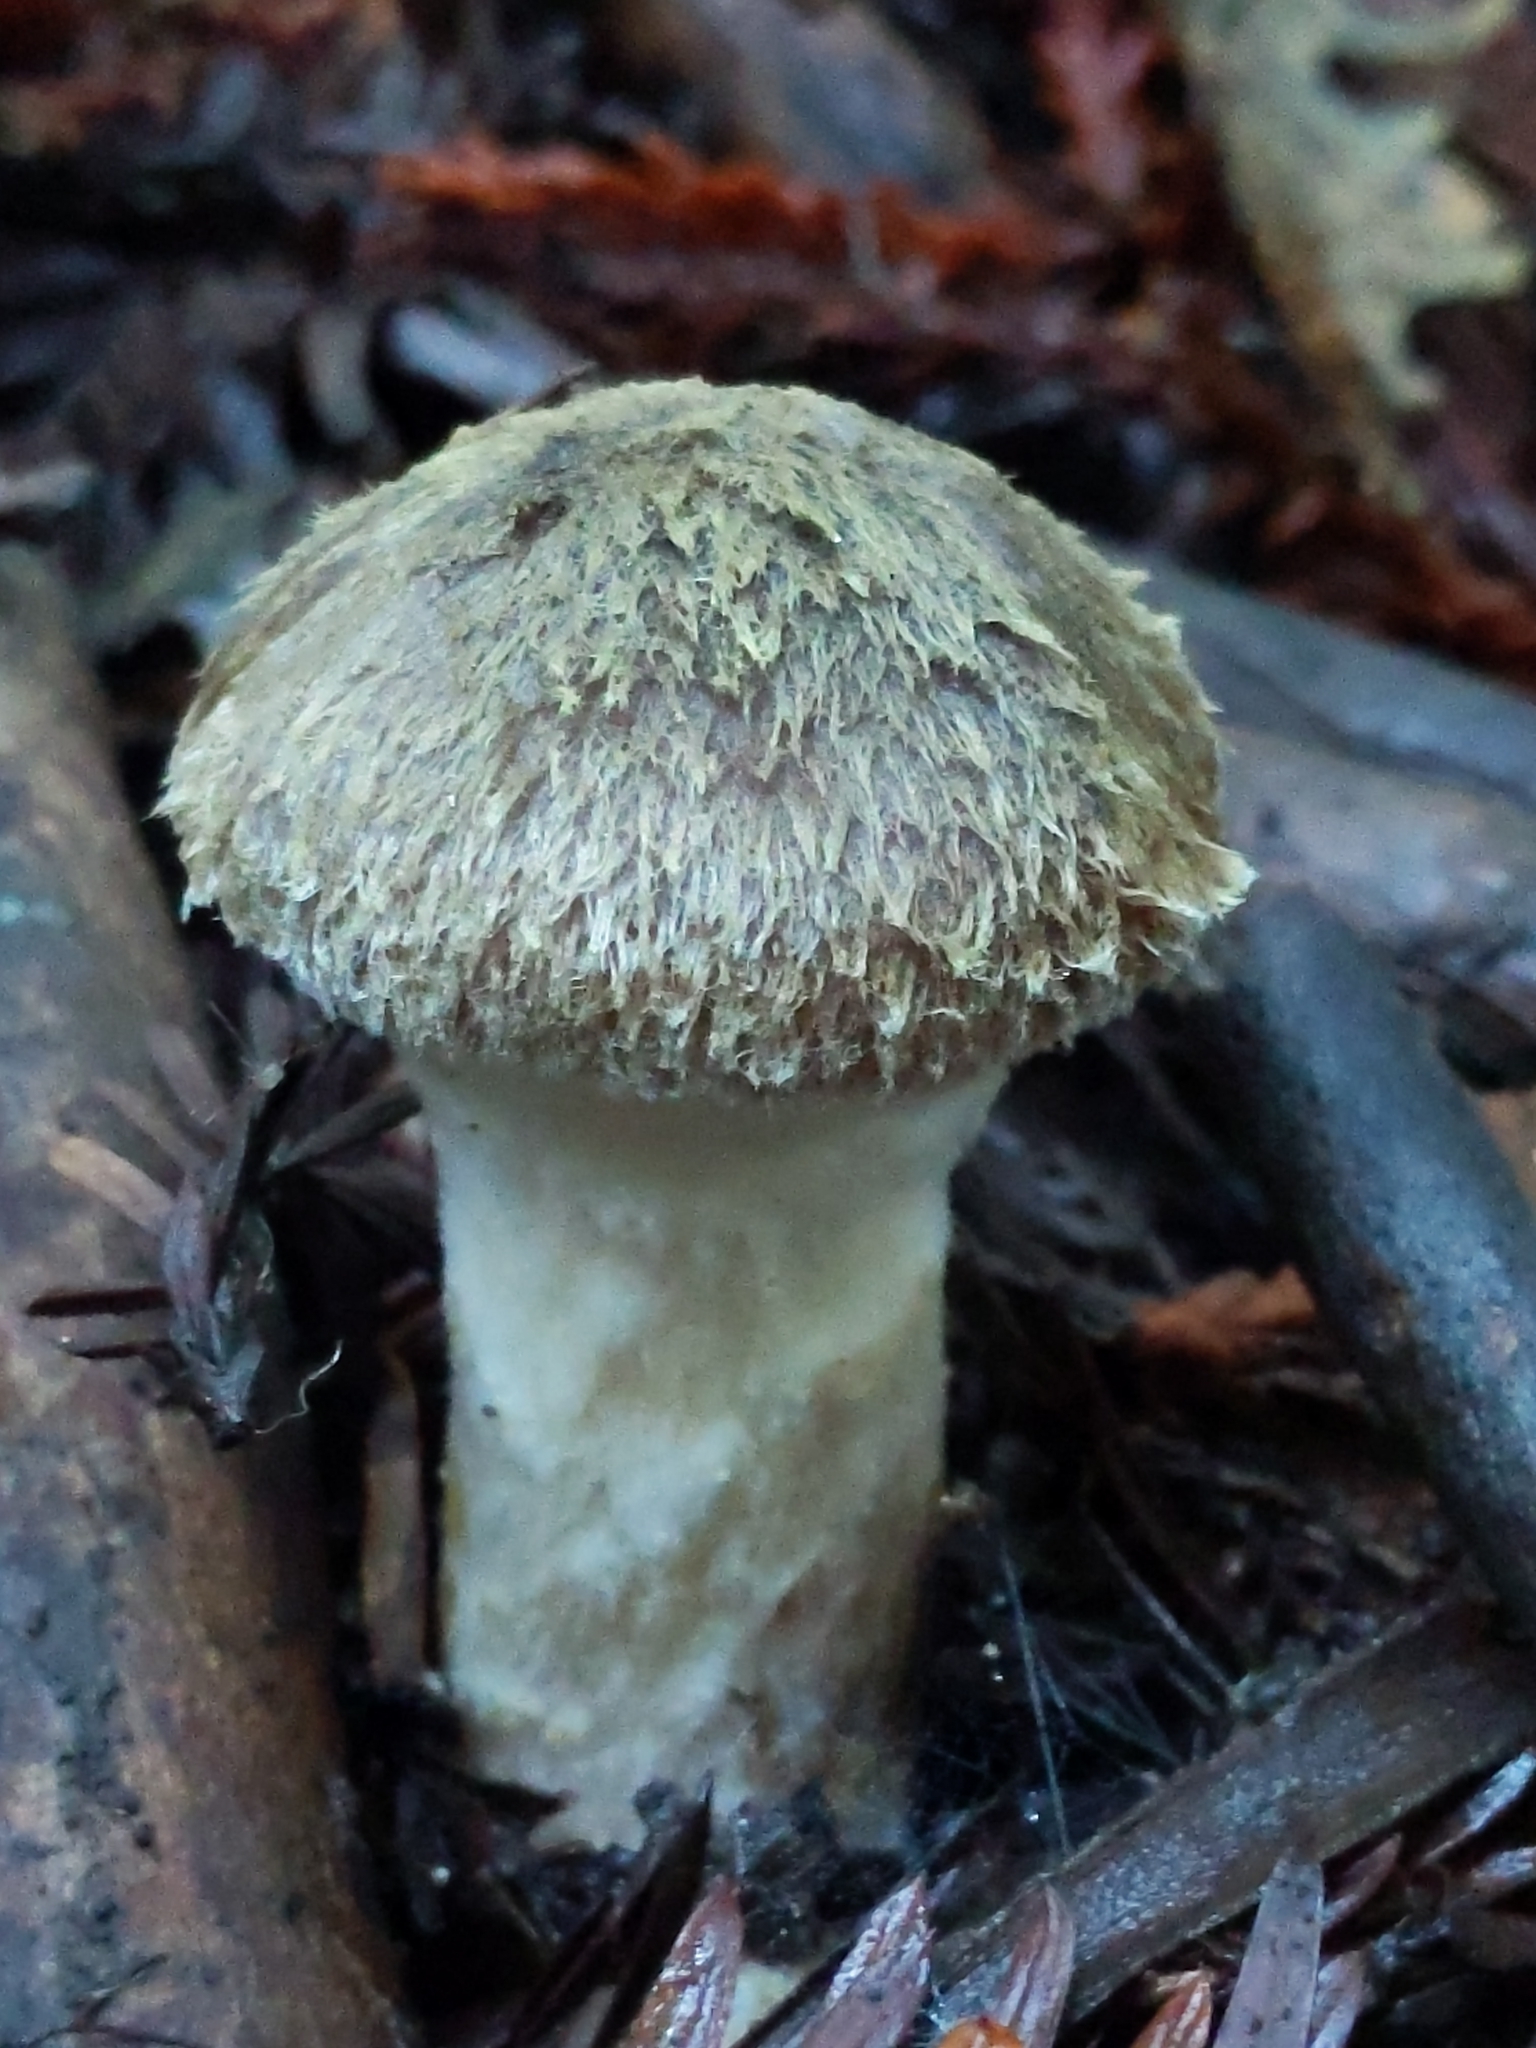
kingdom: Fungi
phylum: Basidiomycota
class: Agaricomycetes
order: Agaricales
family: Physalacriaceae
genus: Armillaria
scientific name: Armillaria sinapina
